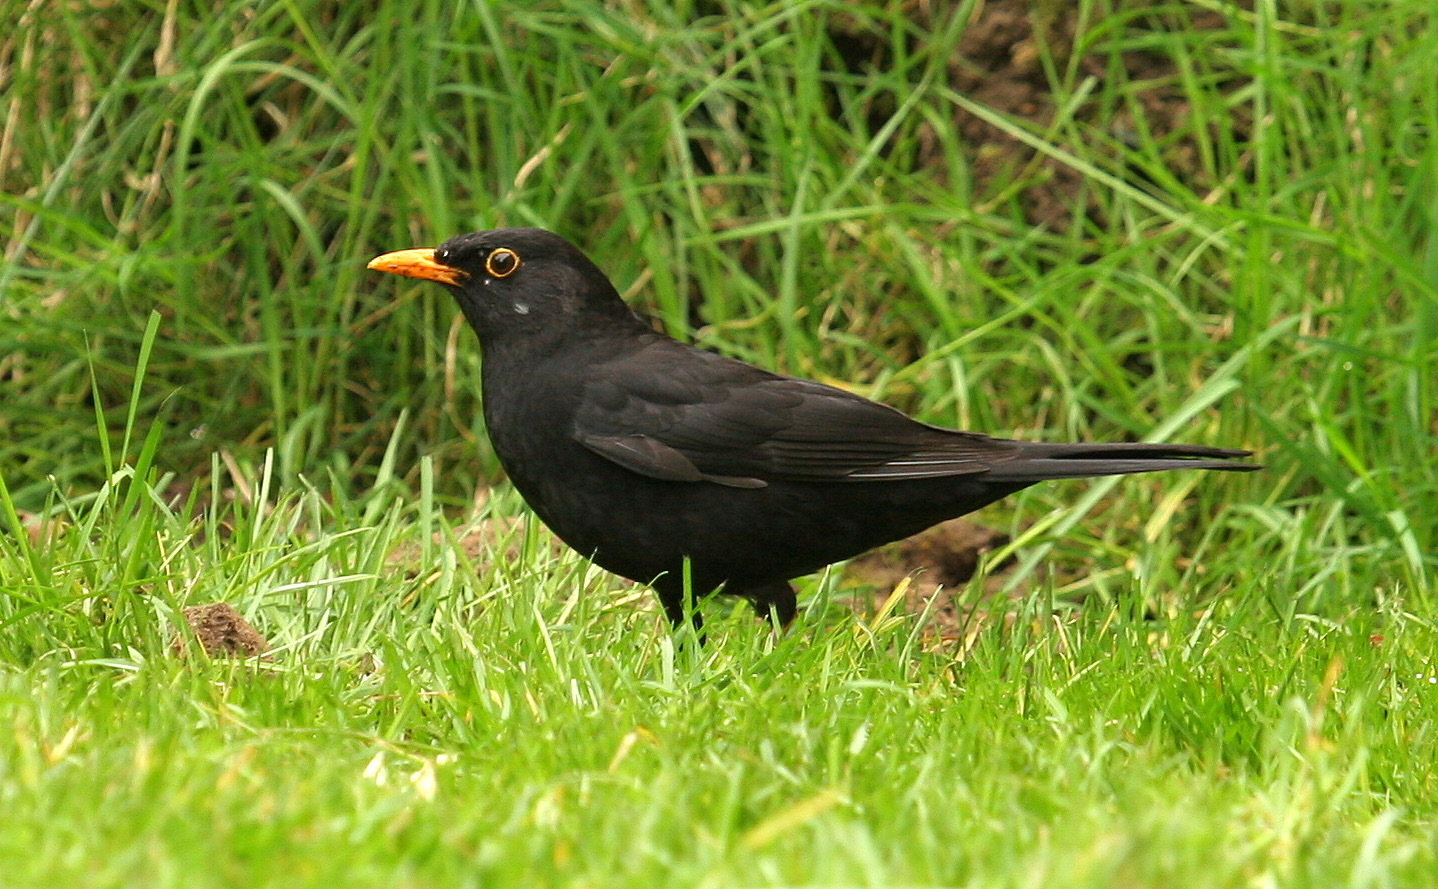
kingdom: Animalia
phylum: Chordata
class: Aves
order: Passeriformes
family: Turdidae
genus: Turdus
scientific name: Turdus merula
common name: Common blackbird
